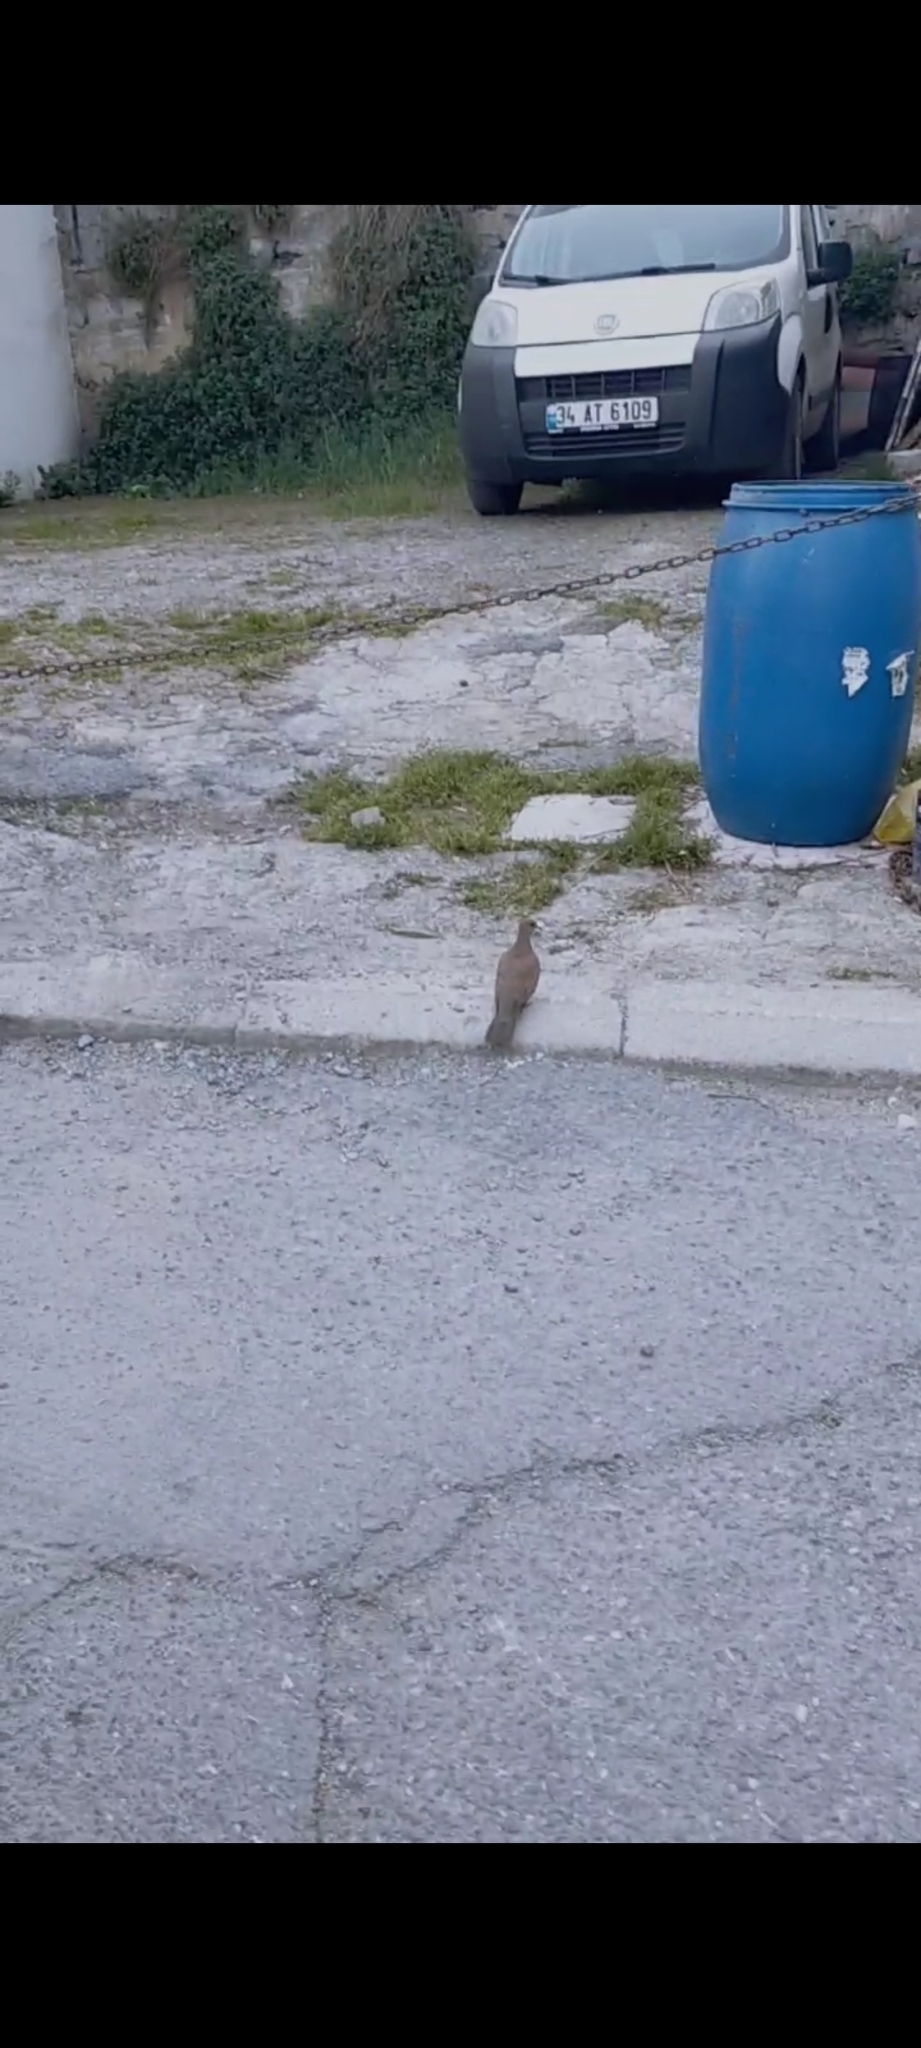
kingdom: Animalia
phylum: Chordata
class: Aves
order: Columbiformes
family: Columbidae
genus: Spilopelia
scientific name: Spilopelia senegalensis
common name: Laughing dove
